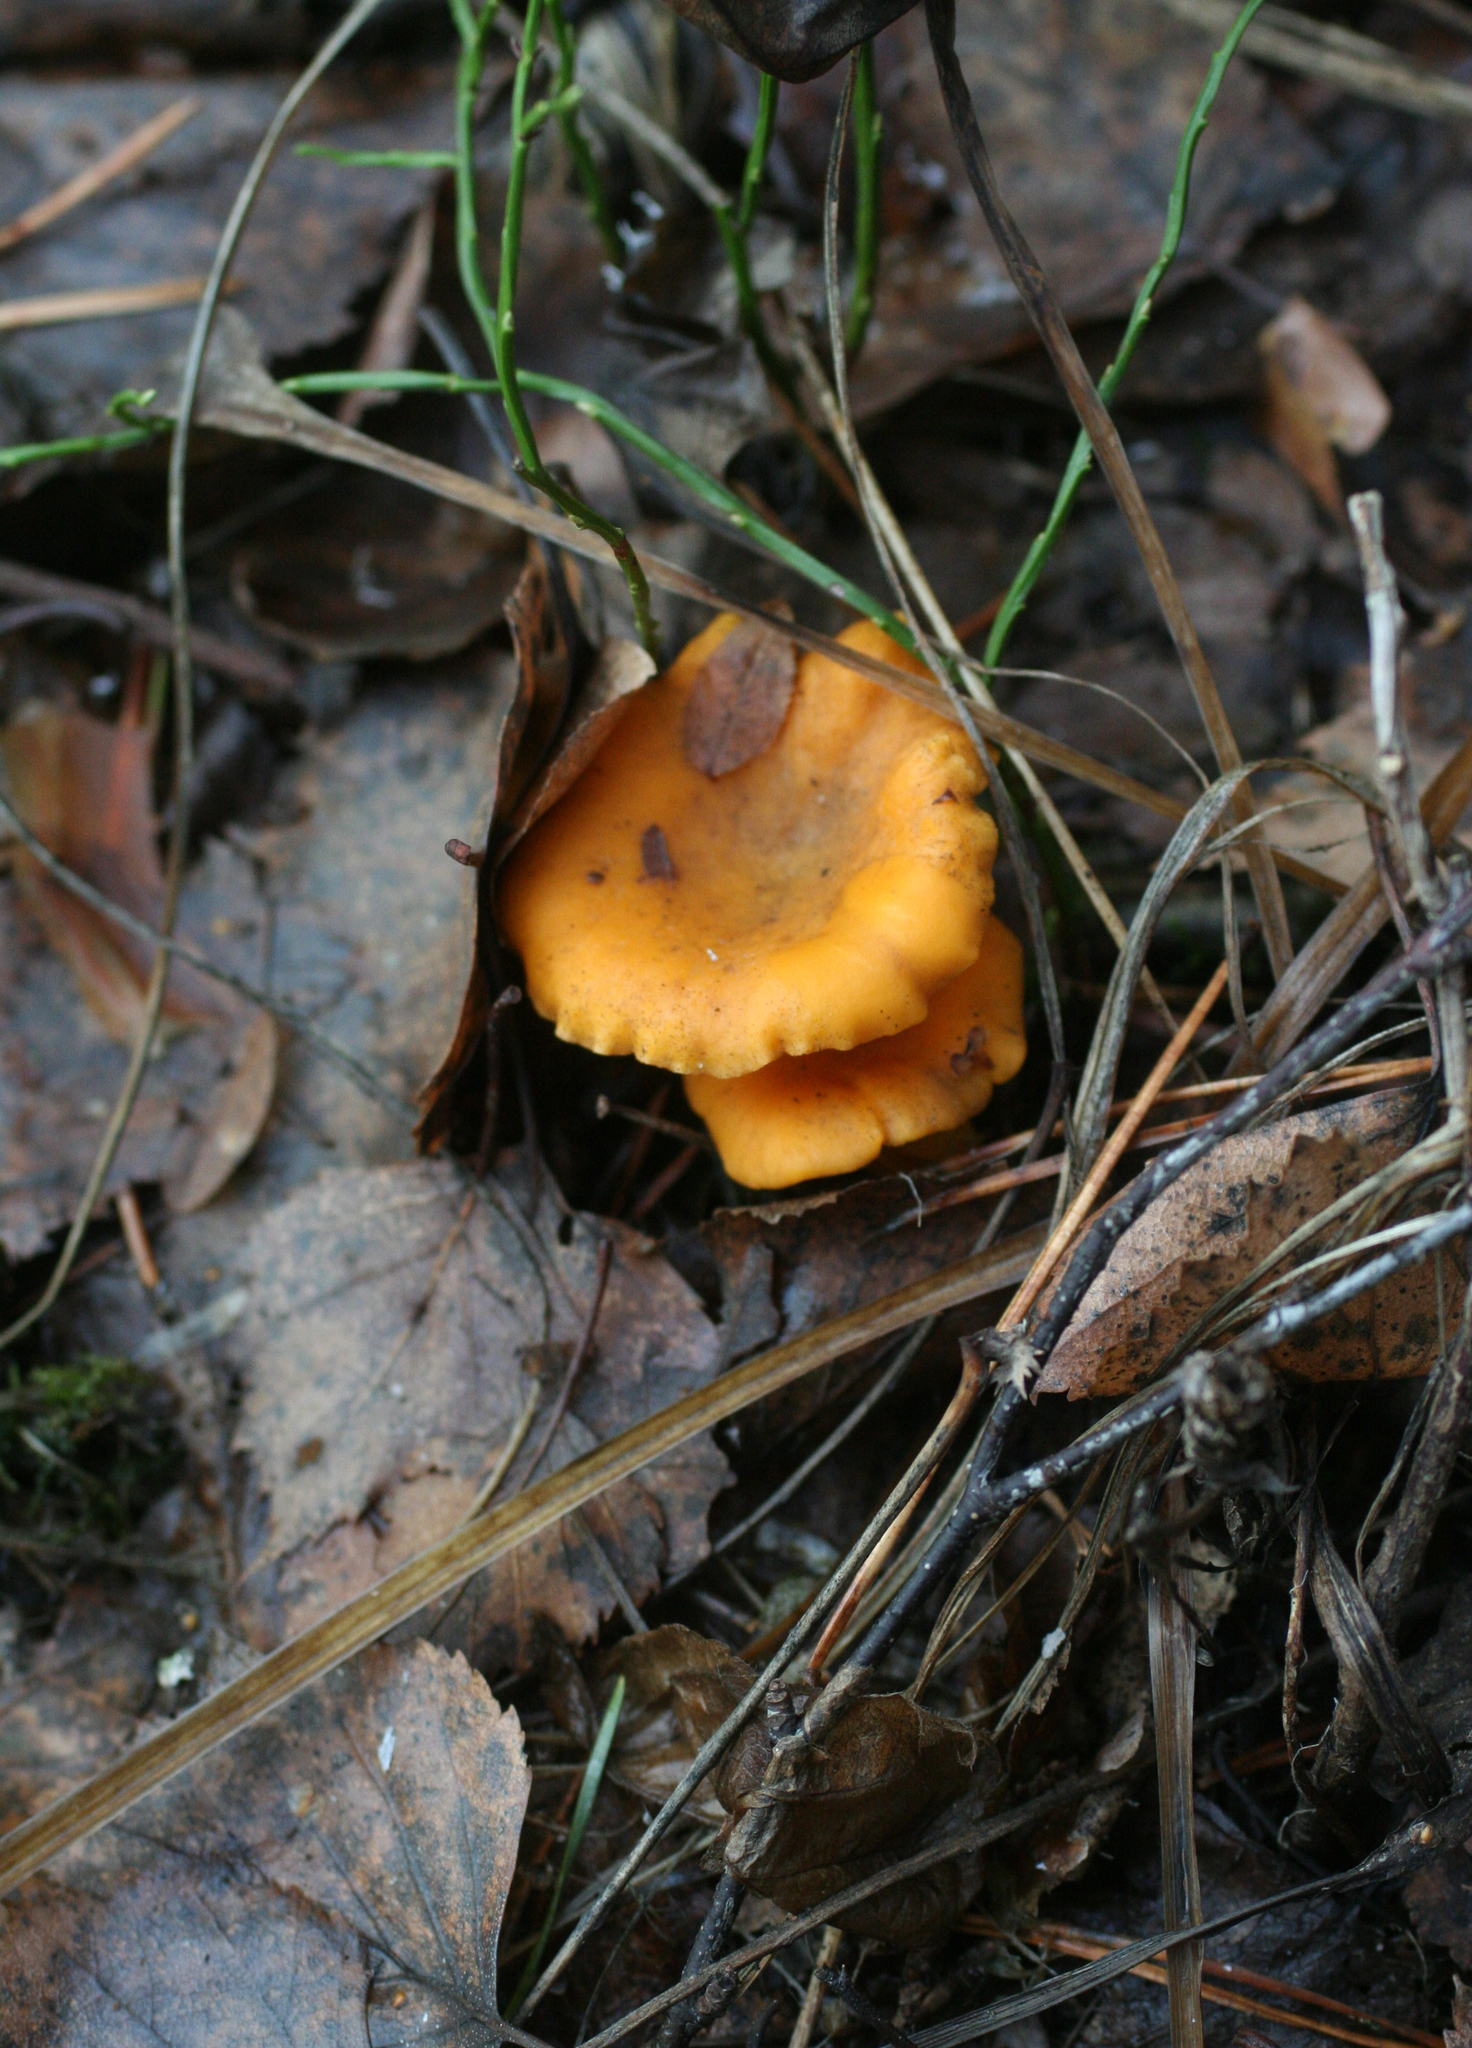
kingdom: Fungi
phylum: Basidiomycota
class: Agaricomycetes
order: Cantharellales
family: Hydnaceae
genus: Cantharellus
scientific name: Cantharellus cibarius
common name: Chanterelle
